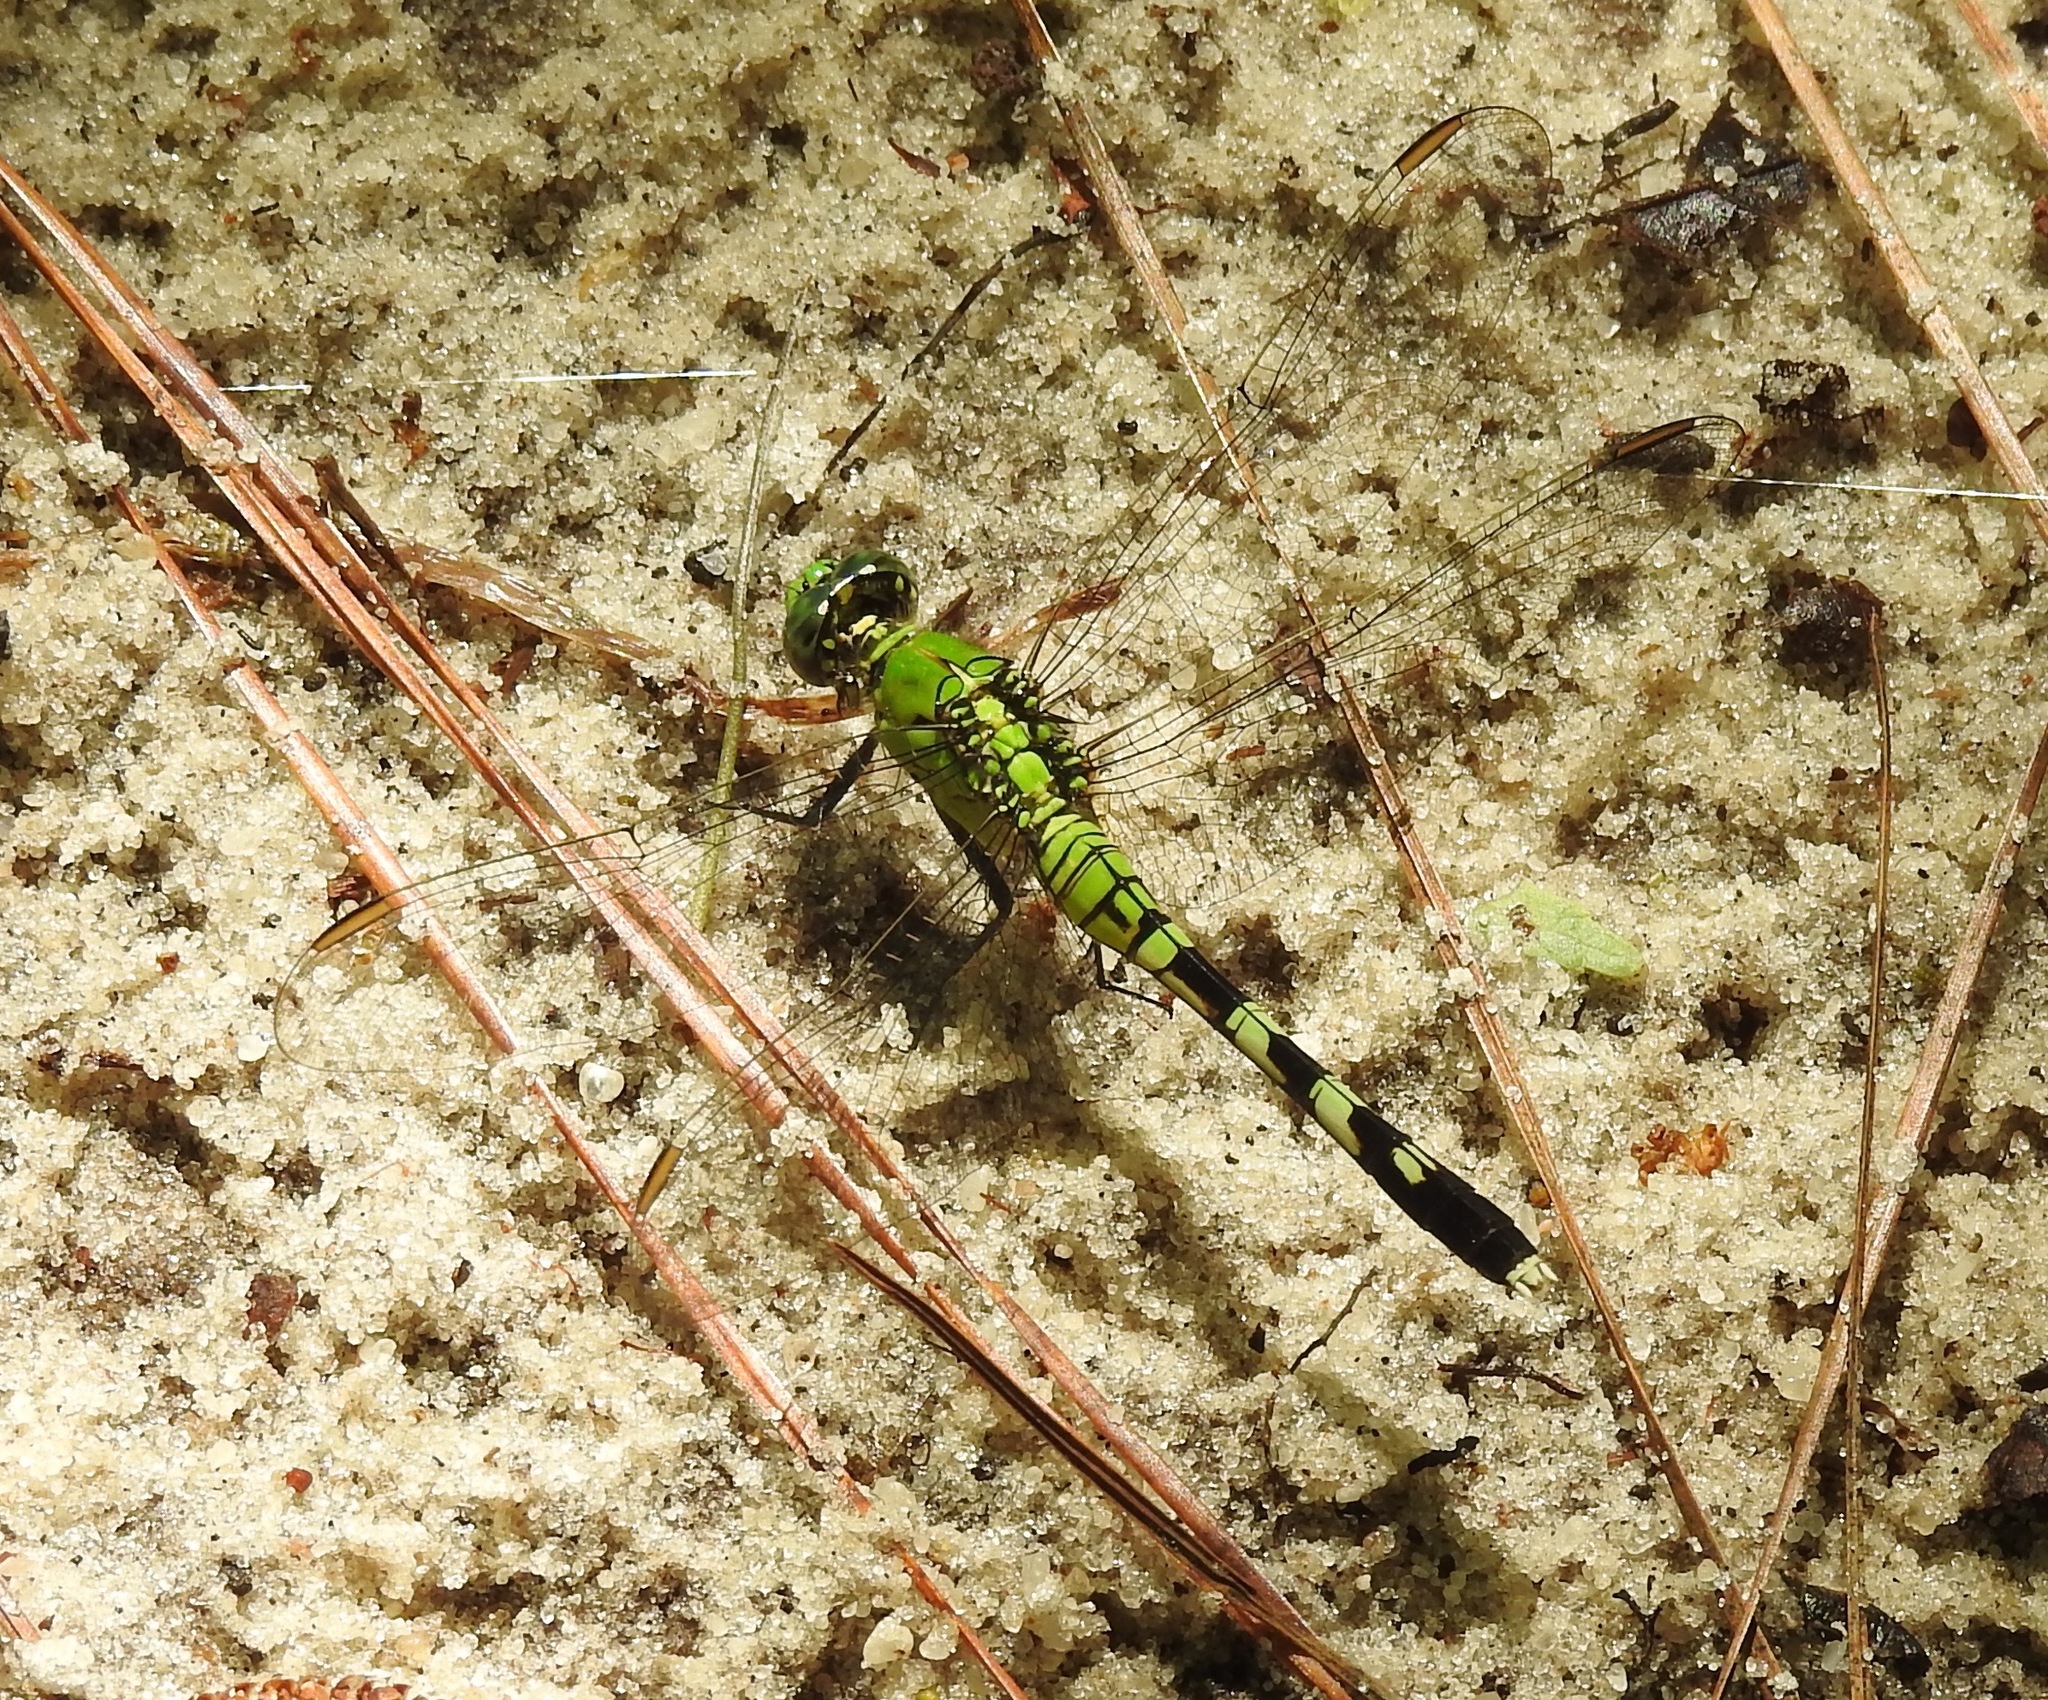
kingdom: Animalia
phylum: Arthropoda
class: Insecta
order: Odonata
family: Libellulidae
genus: Erythemis
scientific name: Erythemis simplicicollis
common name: Eastern pondhawk
